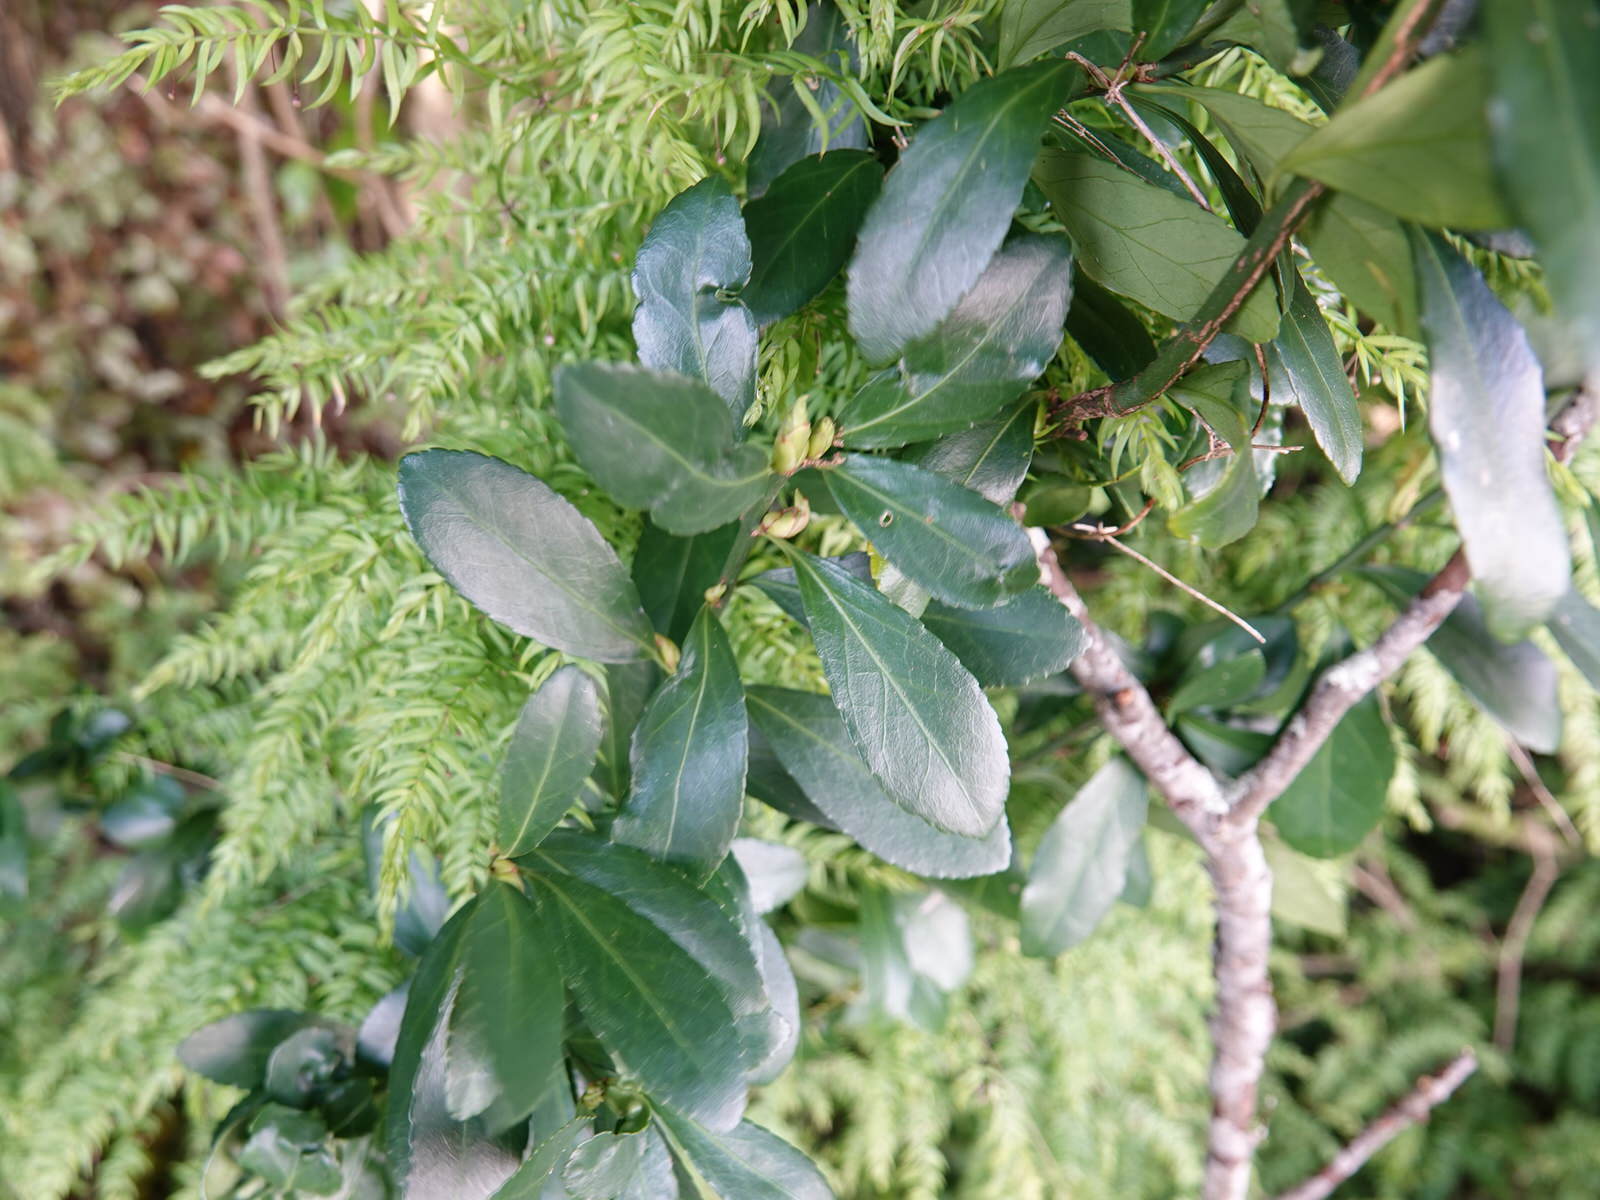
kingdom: Plantae
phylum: Tracheophyta
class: Magnoliopsida
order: Celastrales
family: Celastraceae
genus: Euonymus
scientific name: Euonymus japonicus
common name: Japanese spindletree
